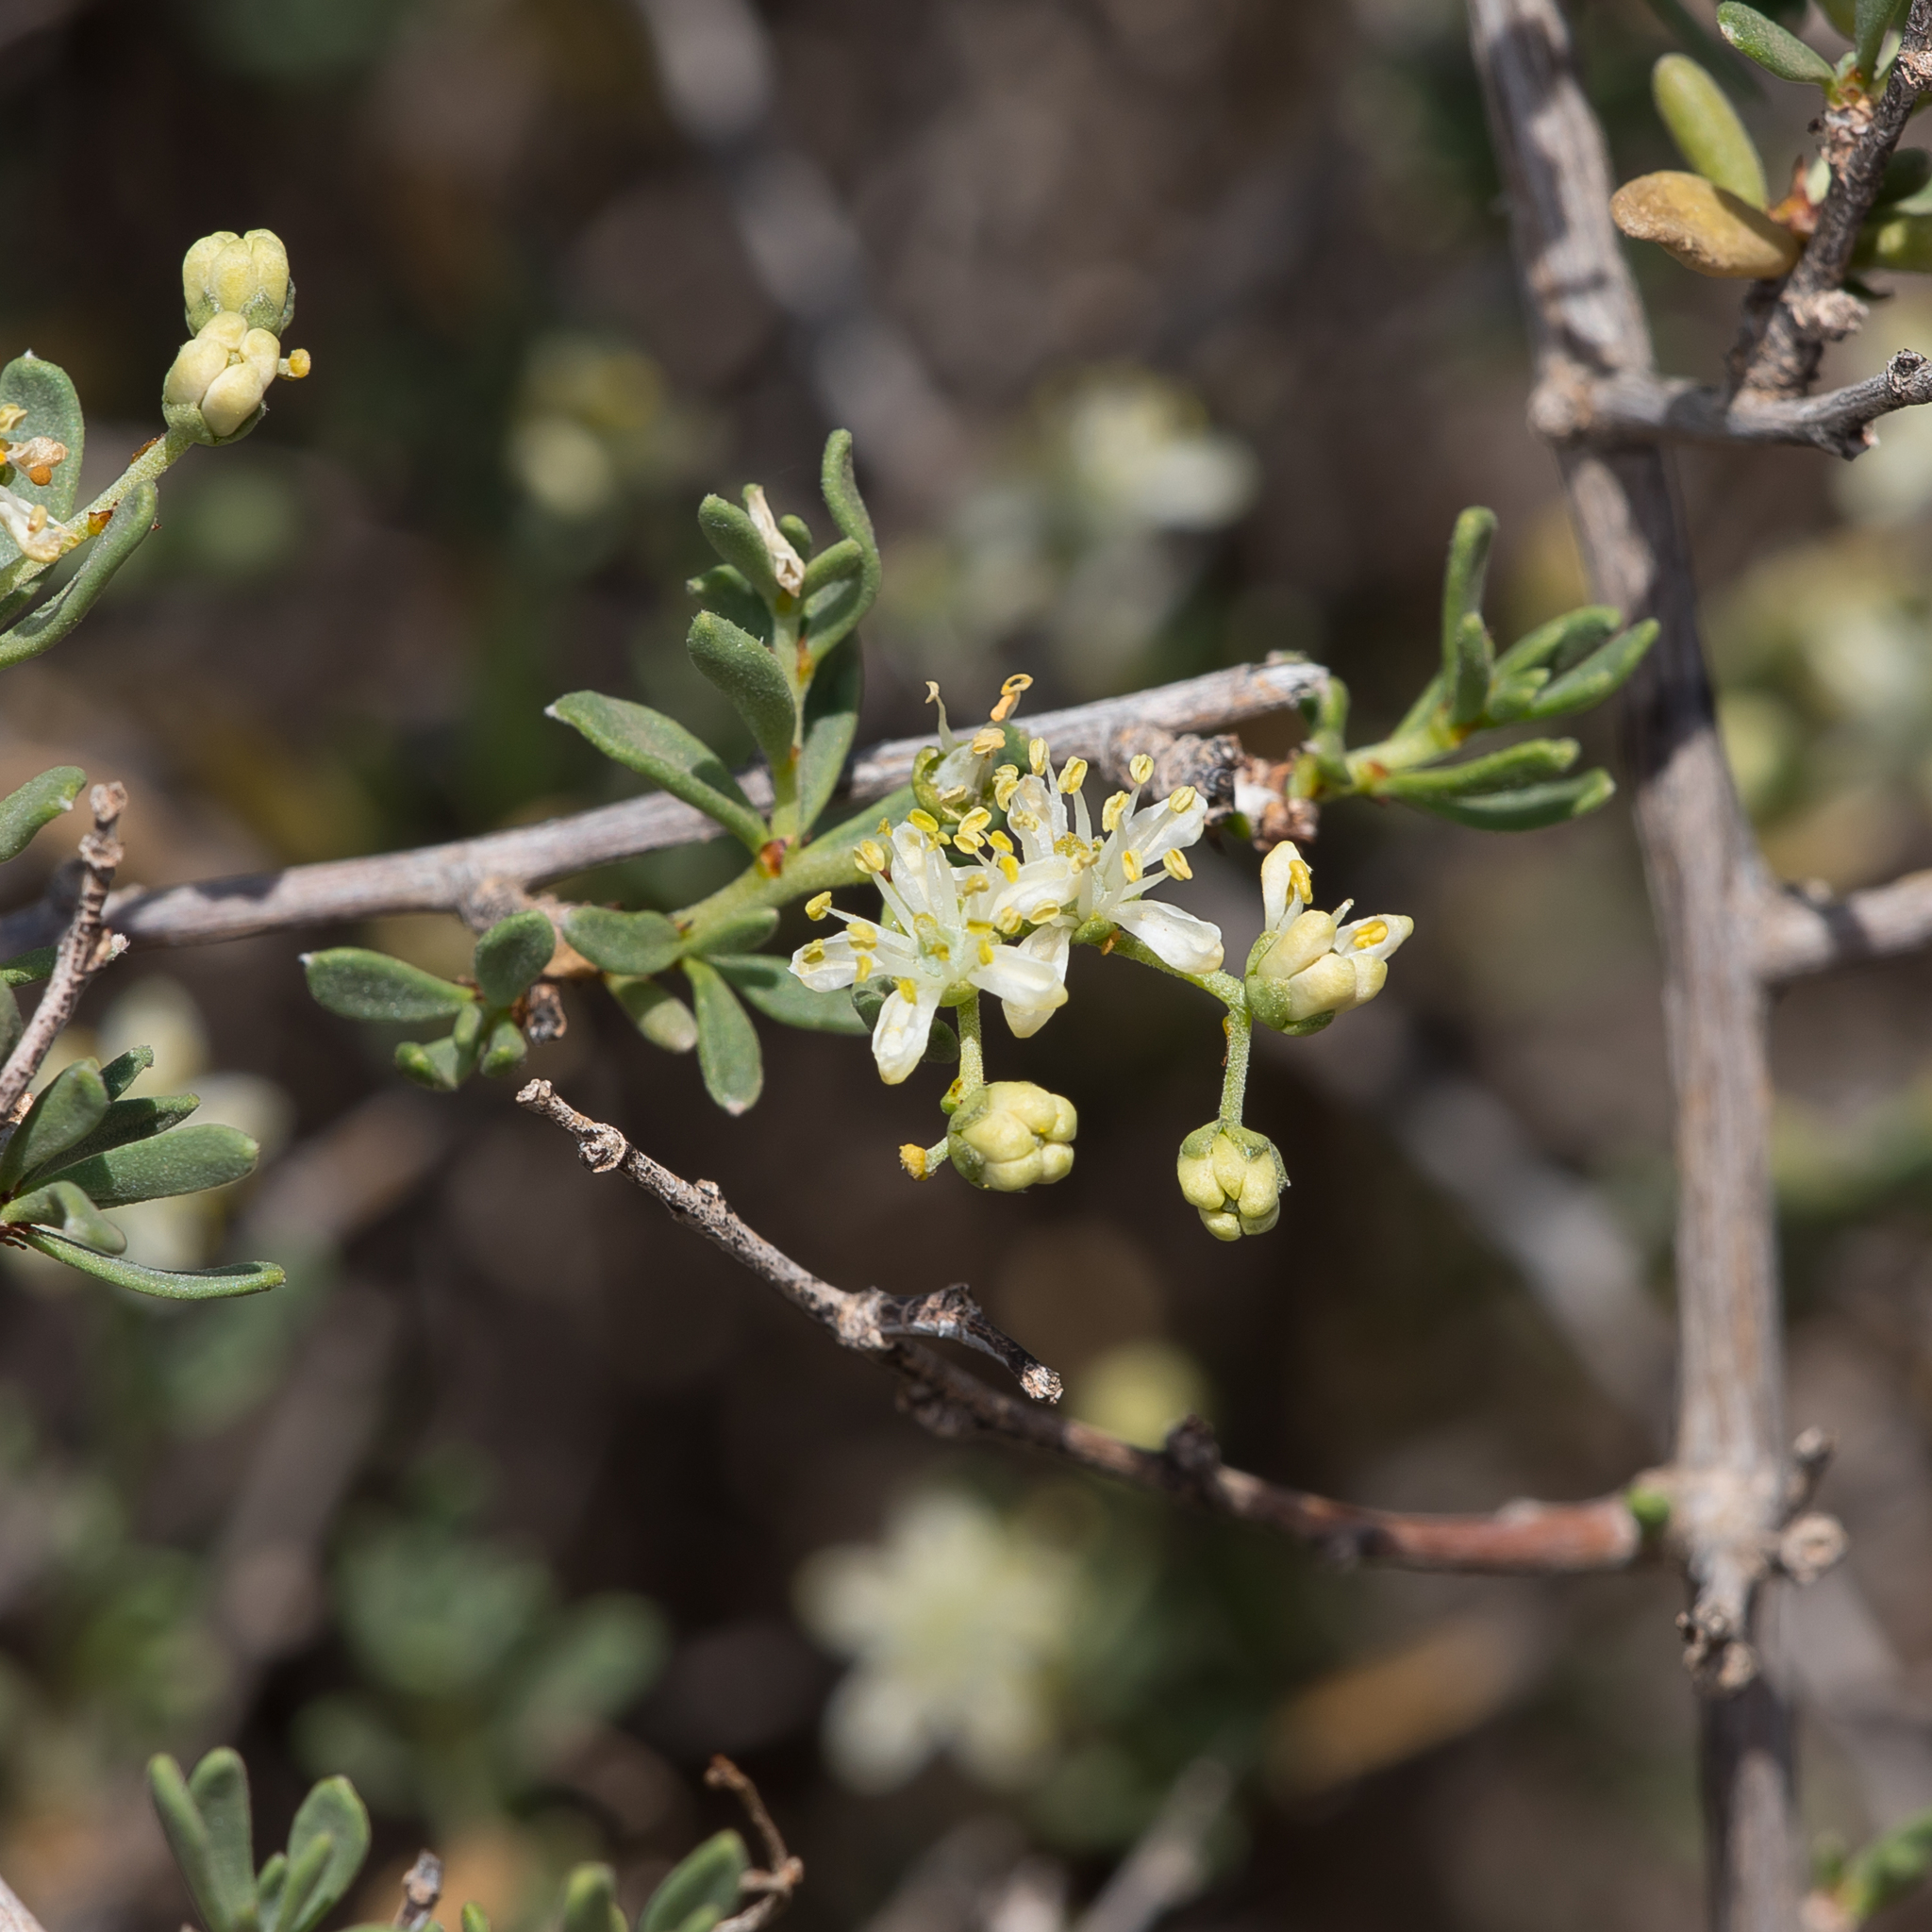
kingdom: Plantae
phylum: Tracheophyta
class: Magnoliopsida
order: Sapindales
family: Nitrariaceae
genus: Nitraria
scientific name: Nitraria billardierei
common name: Dillonbush
